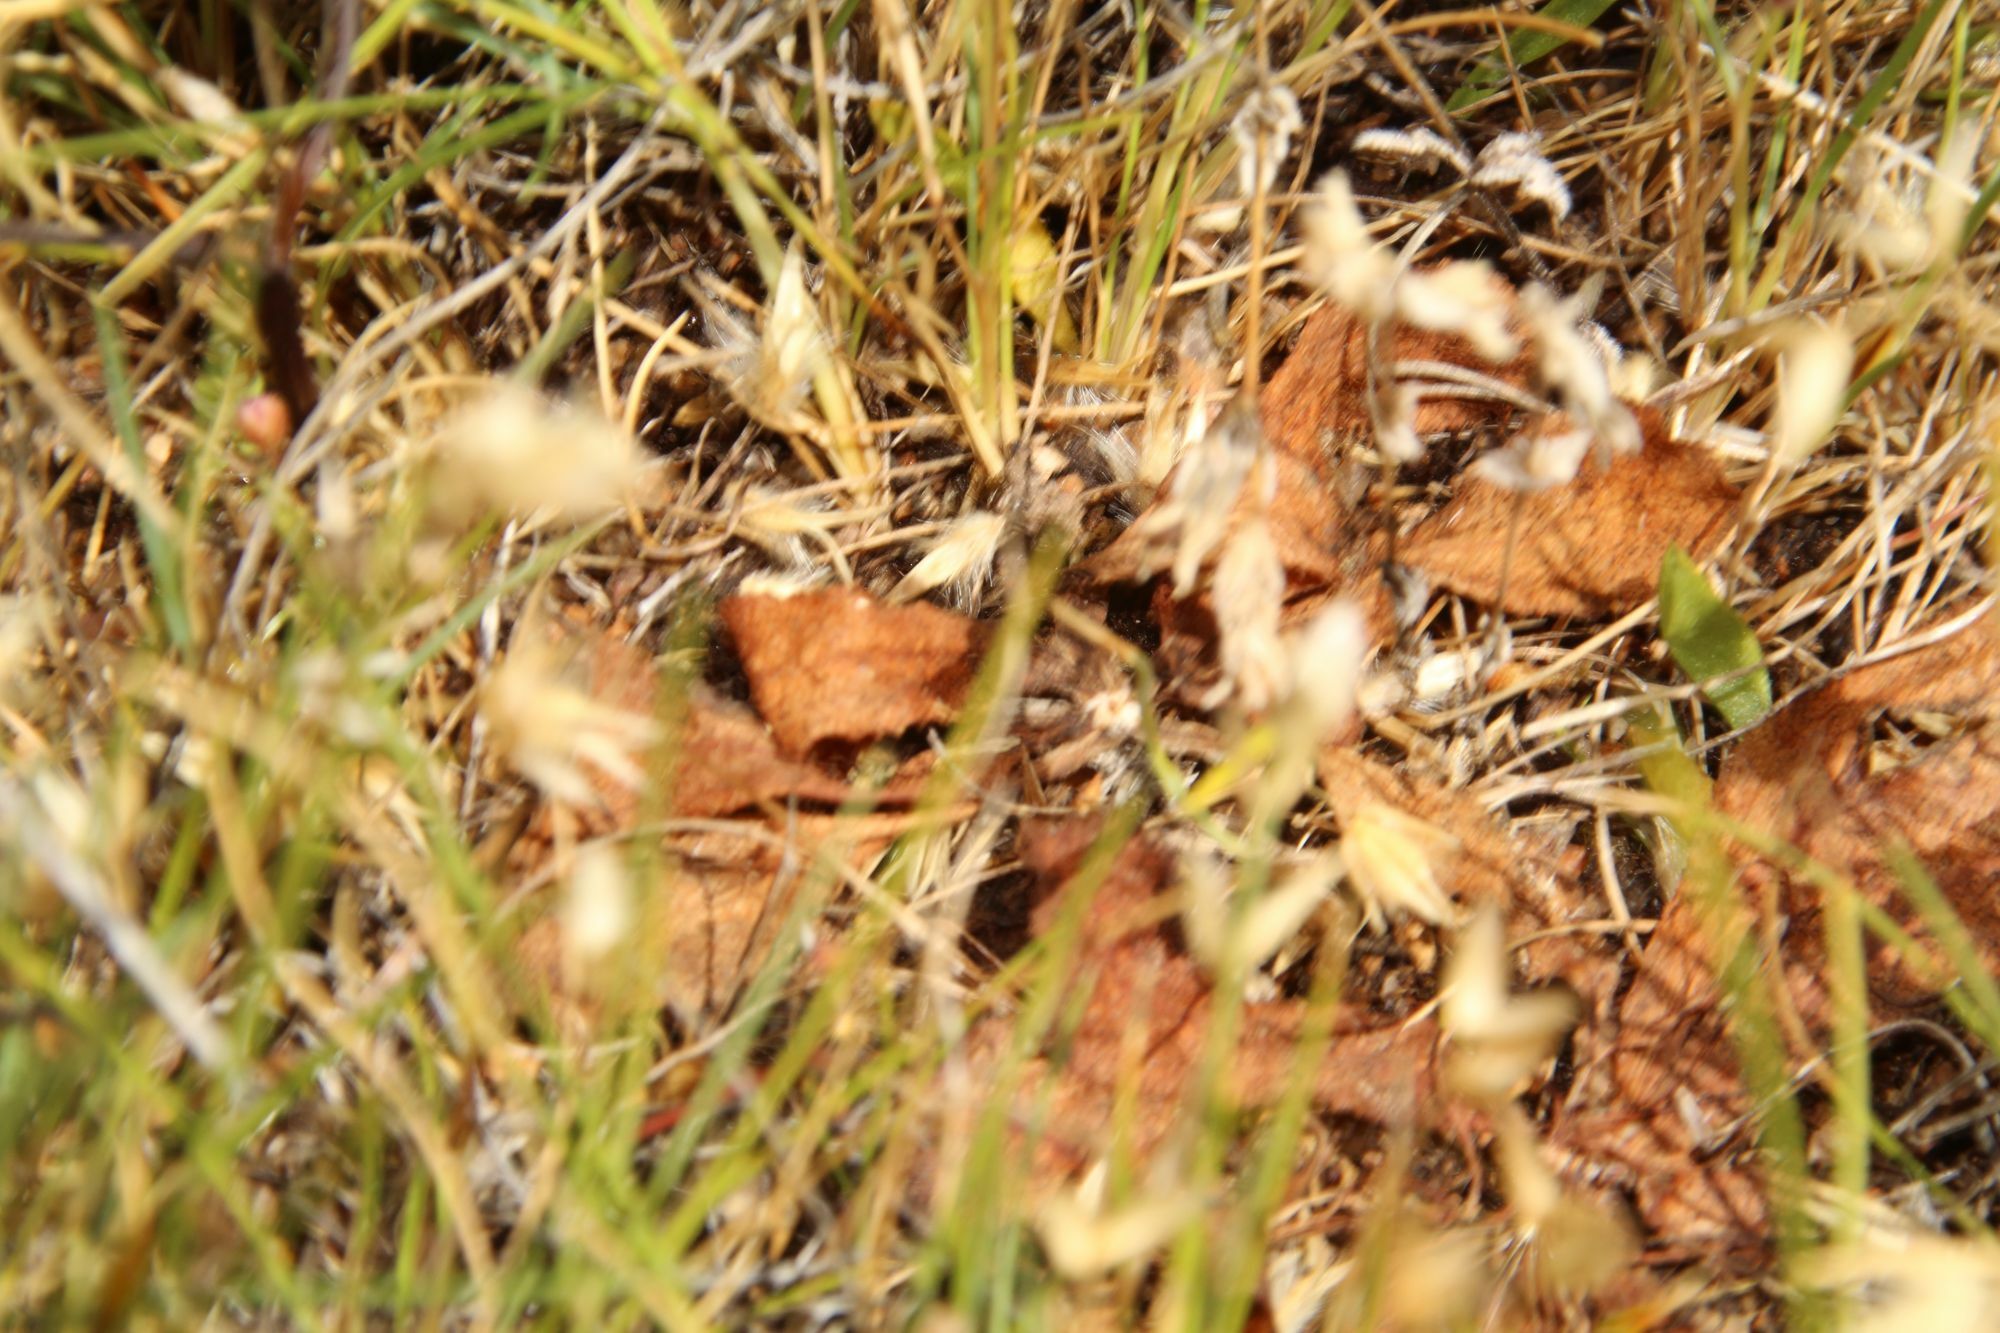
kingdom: Plantae
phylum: Tracheophyta
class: Magnoliopsida
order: Caryophyllales
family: Droseraceae
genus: Drosera
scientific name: Drosera bulbosa
